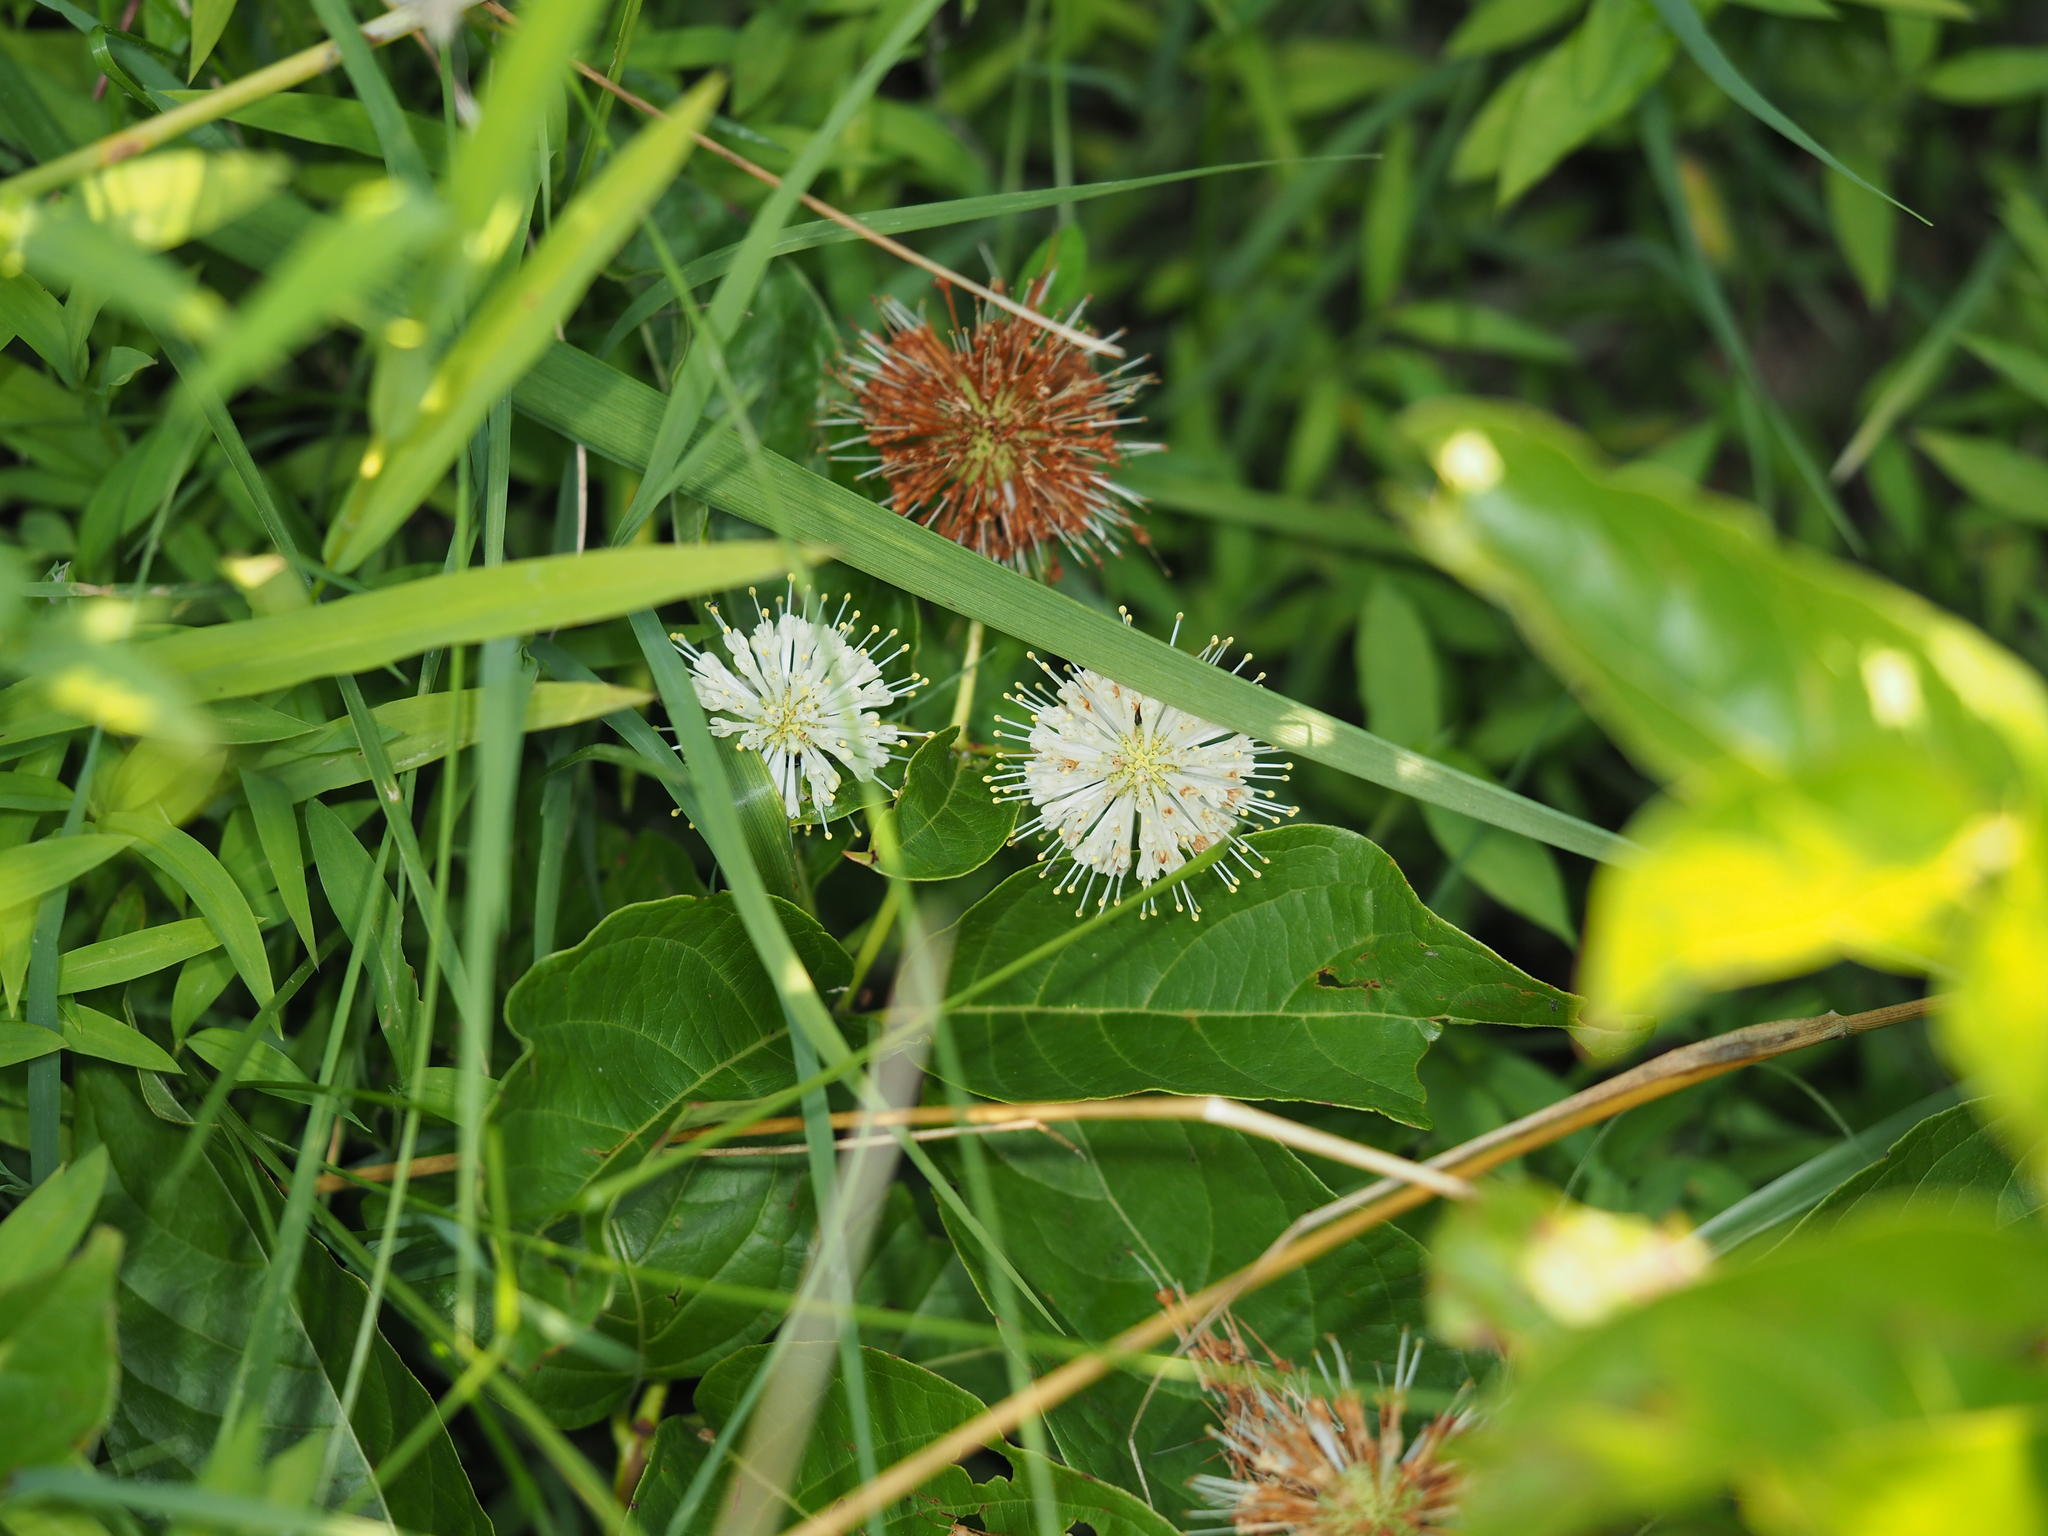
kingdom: Plantae
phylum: Tracheophyta
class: Magnoliopsida
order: Gentianales
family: Rubiaceae
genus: Cephalanthus
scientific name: Cephalanthus occidentalis
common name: Button-willow
